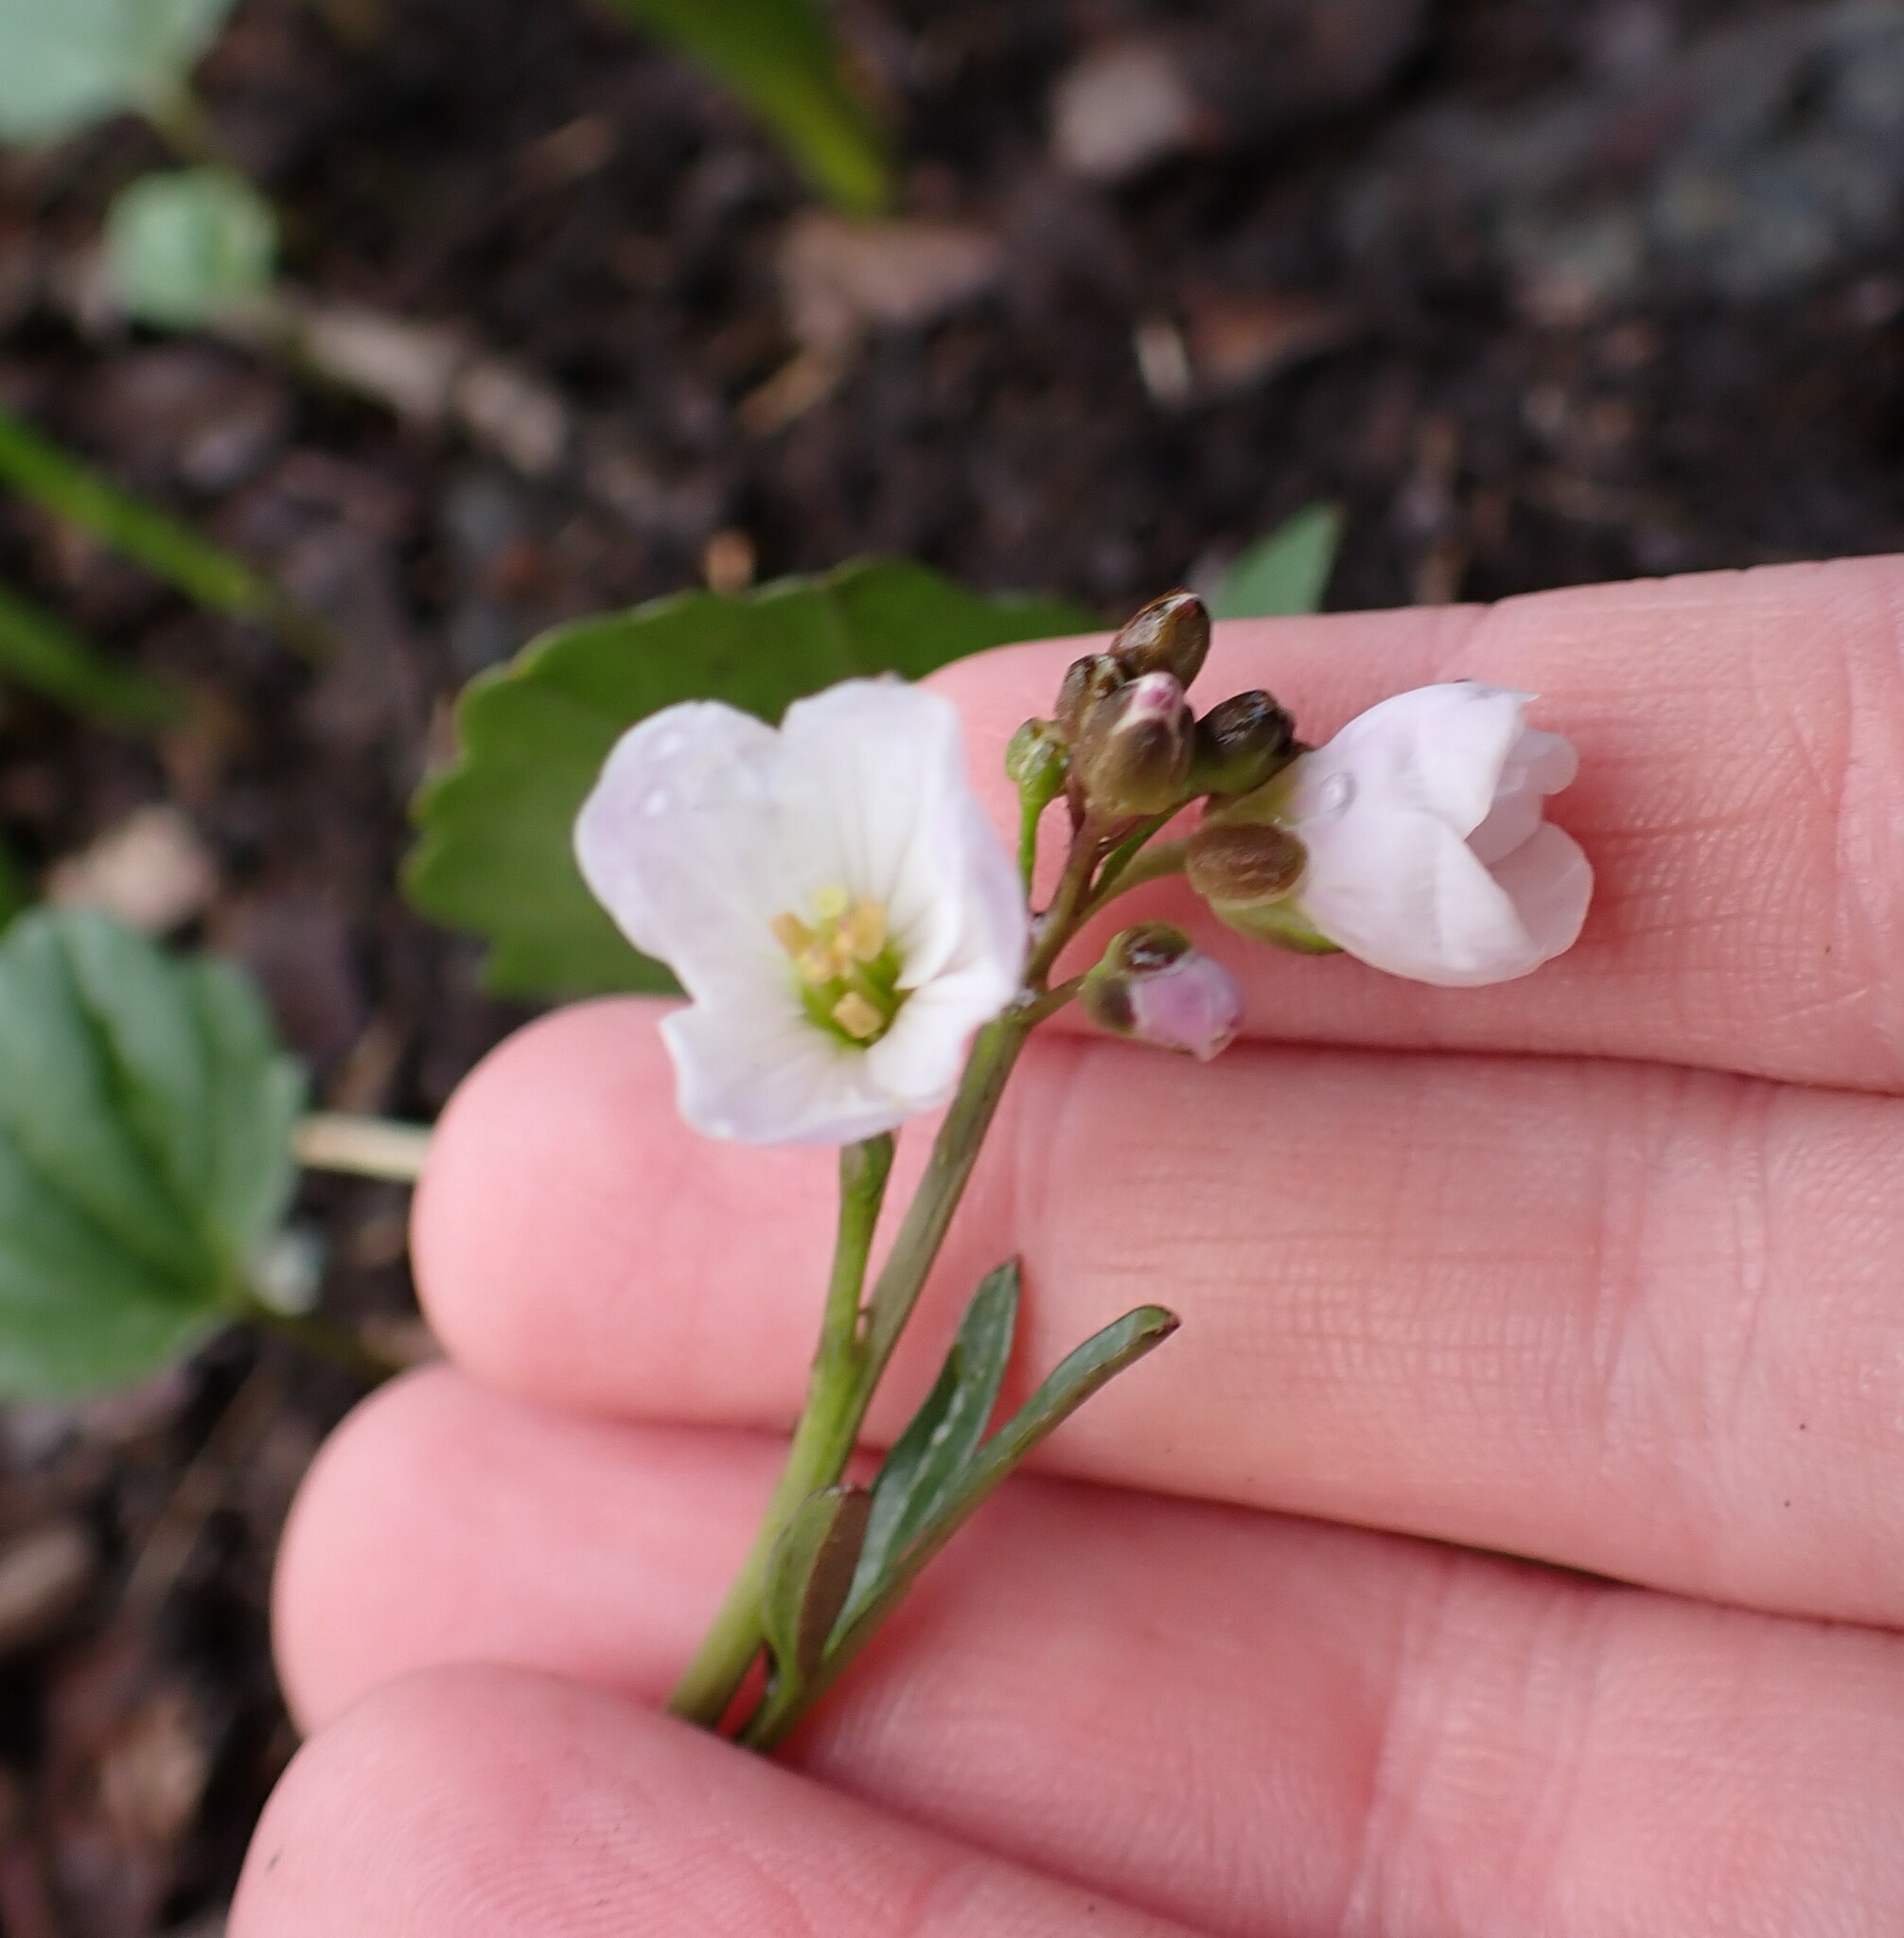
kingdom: Plantae
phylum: Tracheophyta
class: Magnoliopsida
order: Brassicales
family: Brassicaceae
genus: Cardamine
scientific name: Cardamine nuttallii
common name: Nuttall's toothwort
